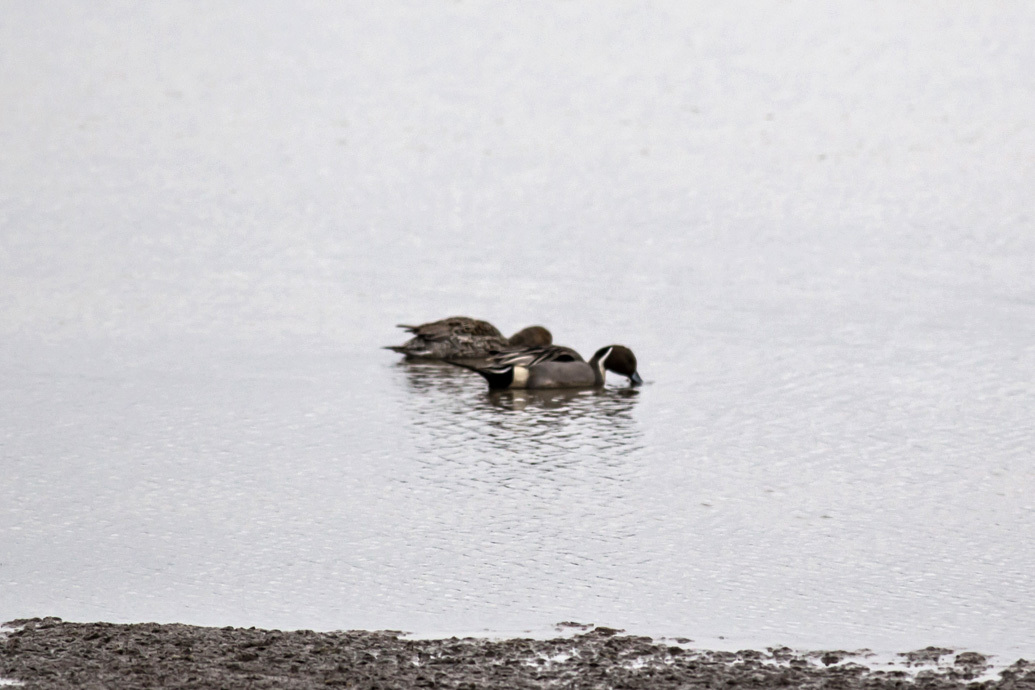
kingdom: Animalia
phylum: Chordata
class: Aves
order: Anseriformes
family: Anatidae
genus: Anas
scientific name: Anas acuta
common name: Northern pintail
